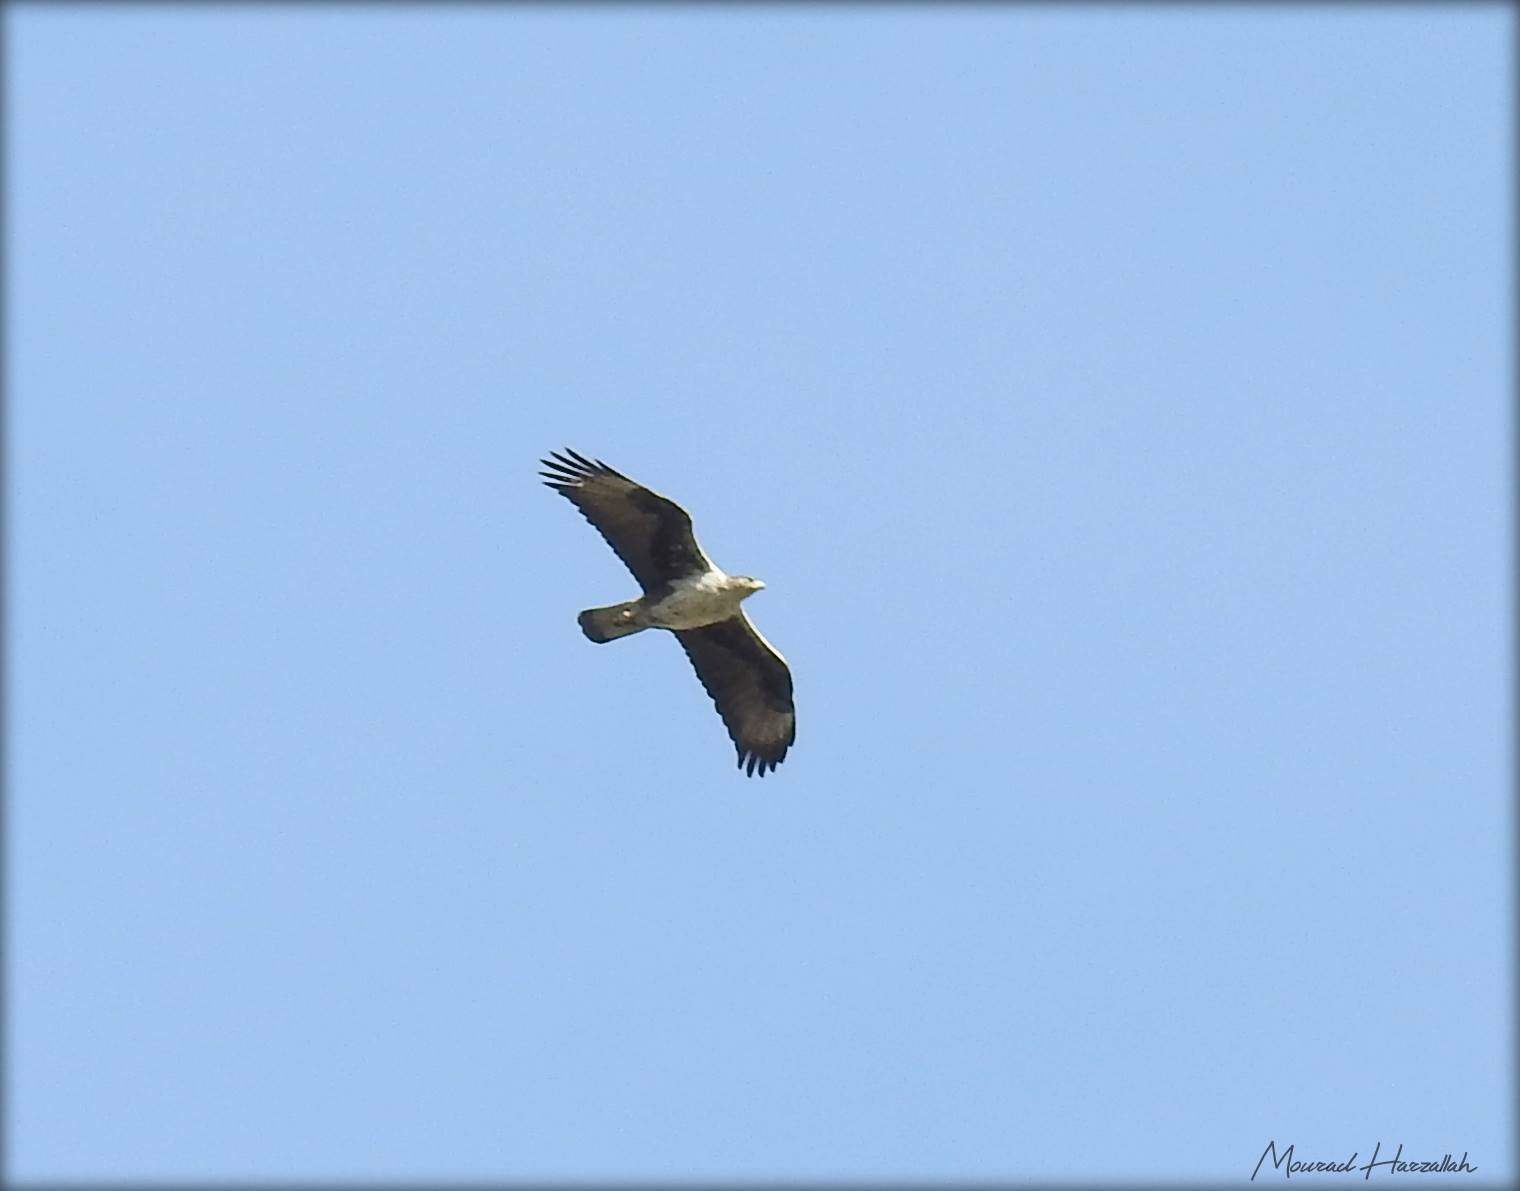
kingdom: Animalia
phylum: Chordata
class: Aves
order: Accipitriformes
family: Accipitridae
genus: Aquila
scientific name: Aquila fasciata
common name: Bonelli's eagle
